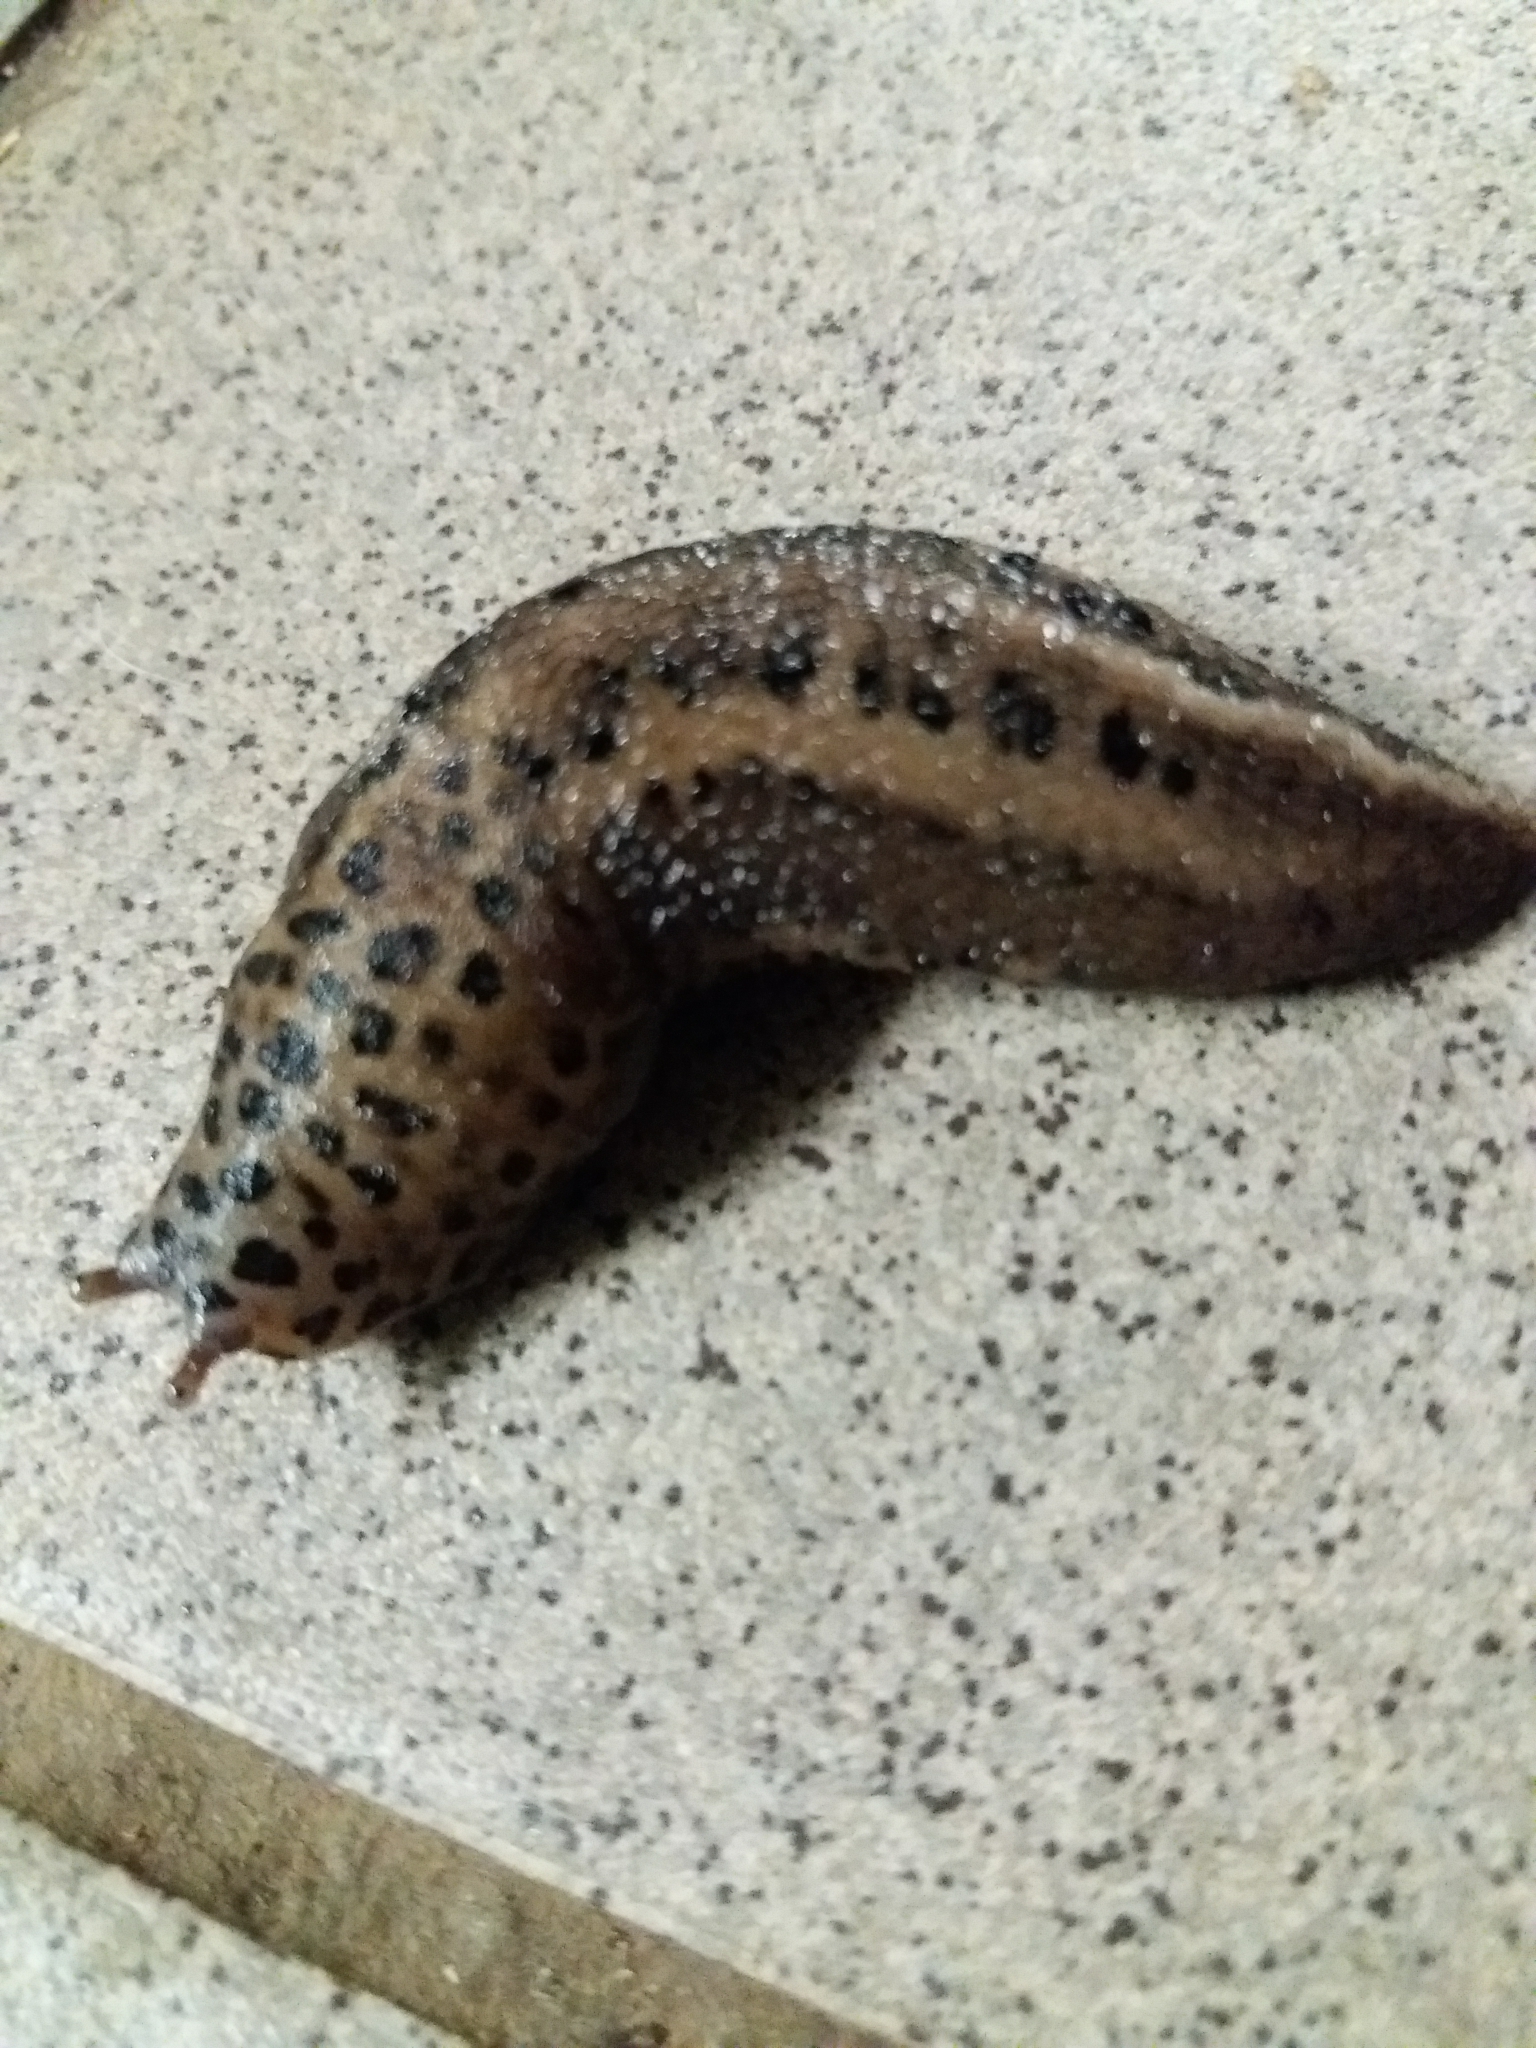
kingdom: Animalia
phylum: Mollusca
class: Gastropoda
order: Stylommatophora
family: Limacidae
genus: Limax
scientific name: Limax maximus
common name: Great grey slug
